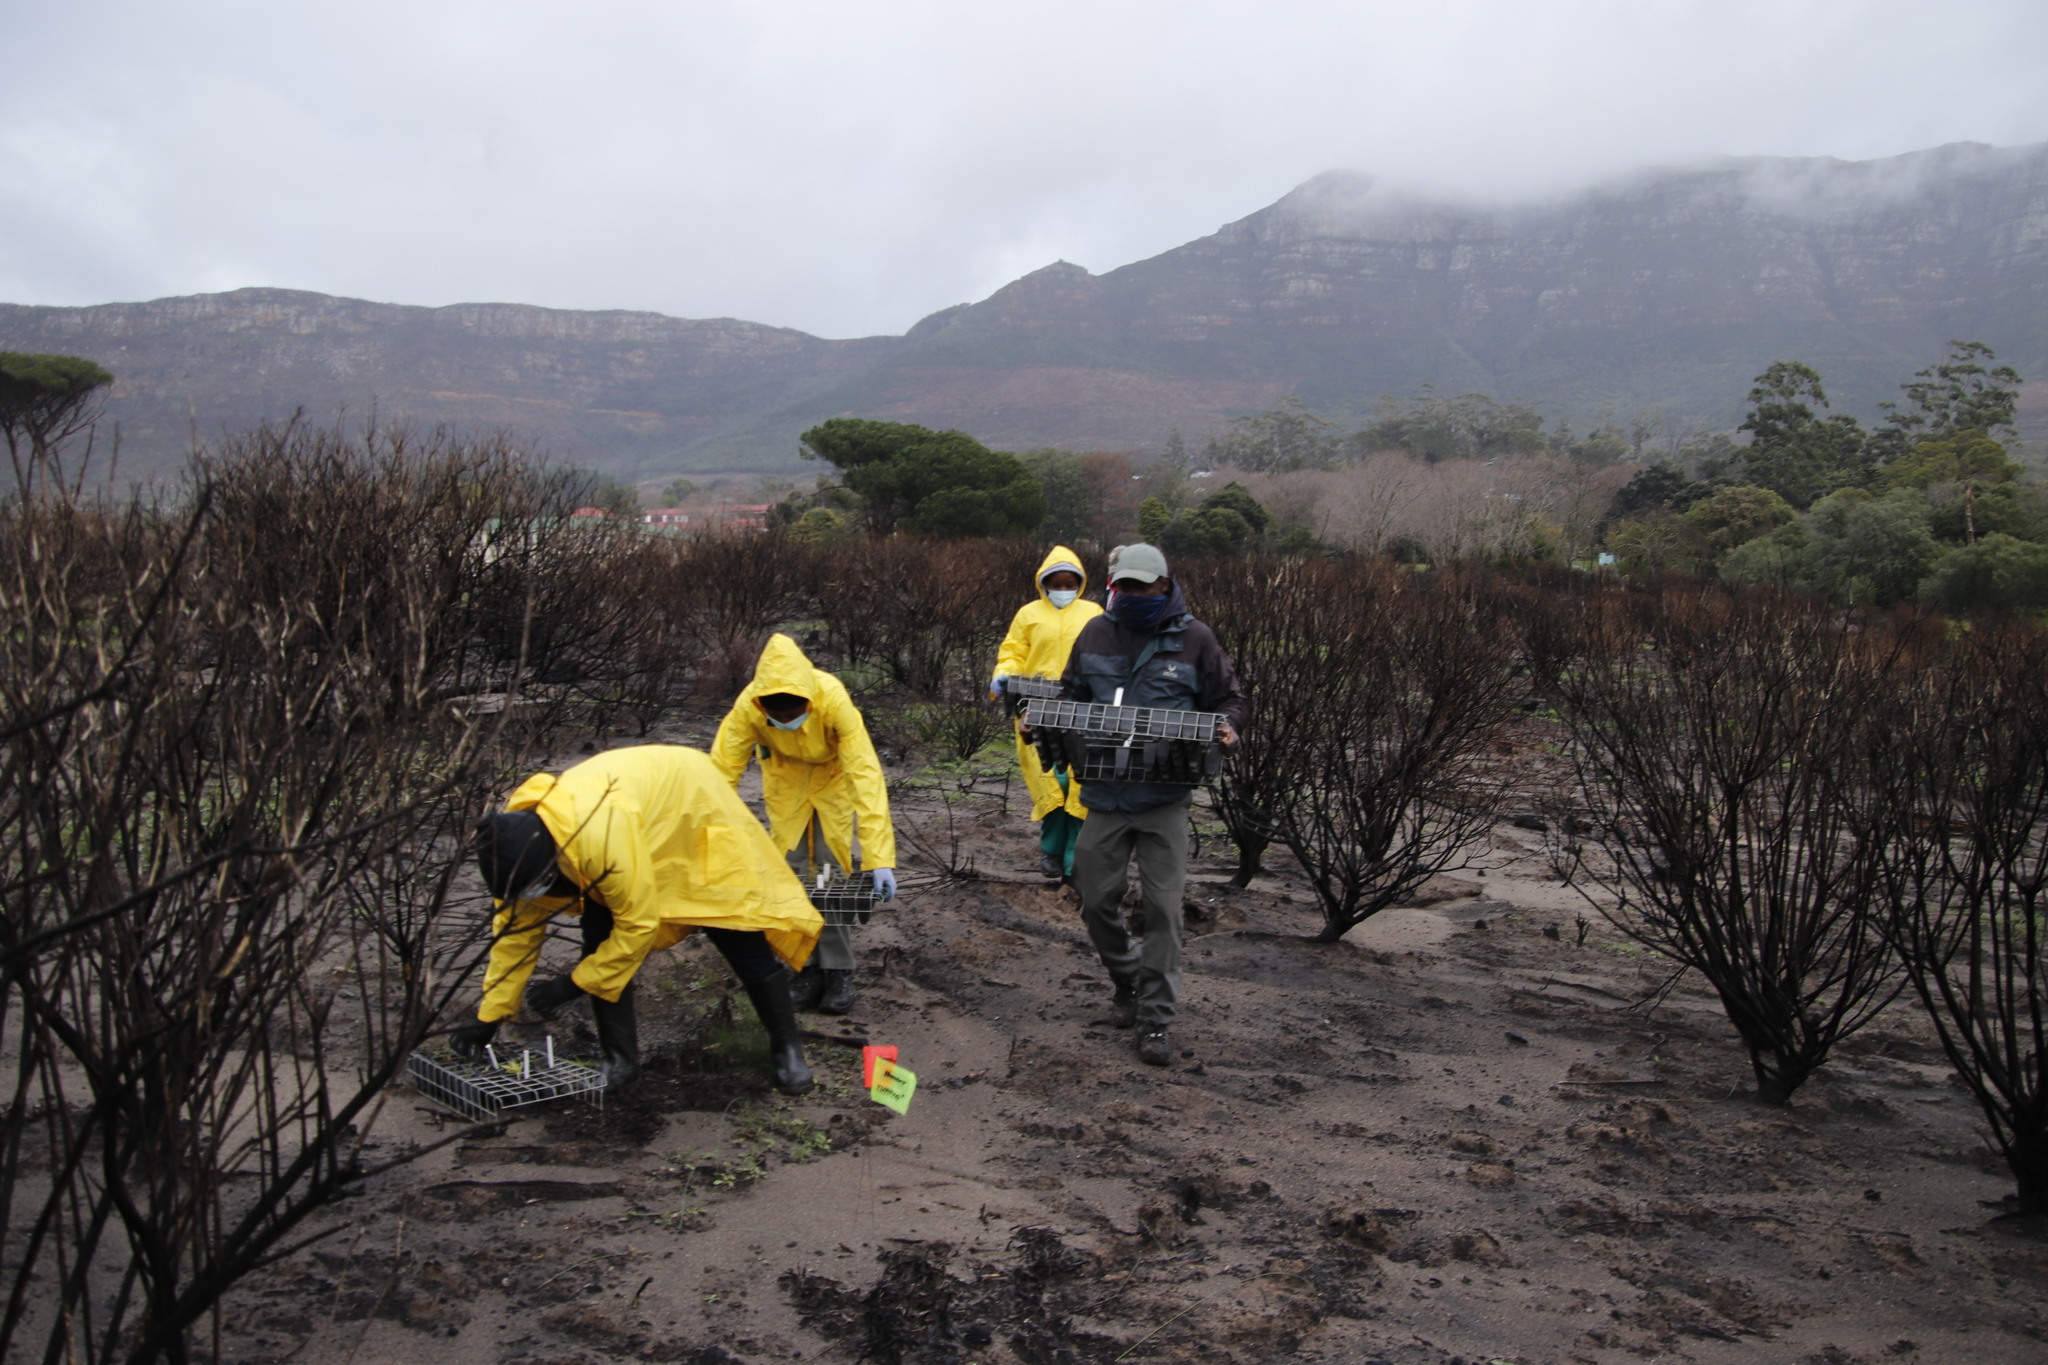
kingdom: Plantae
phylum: Tracheophyta
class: Magnoliopsida
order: Asterales
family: Asteraceae
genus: Osteospermum
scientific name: Osteospermum moniliferum
